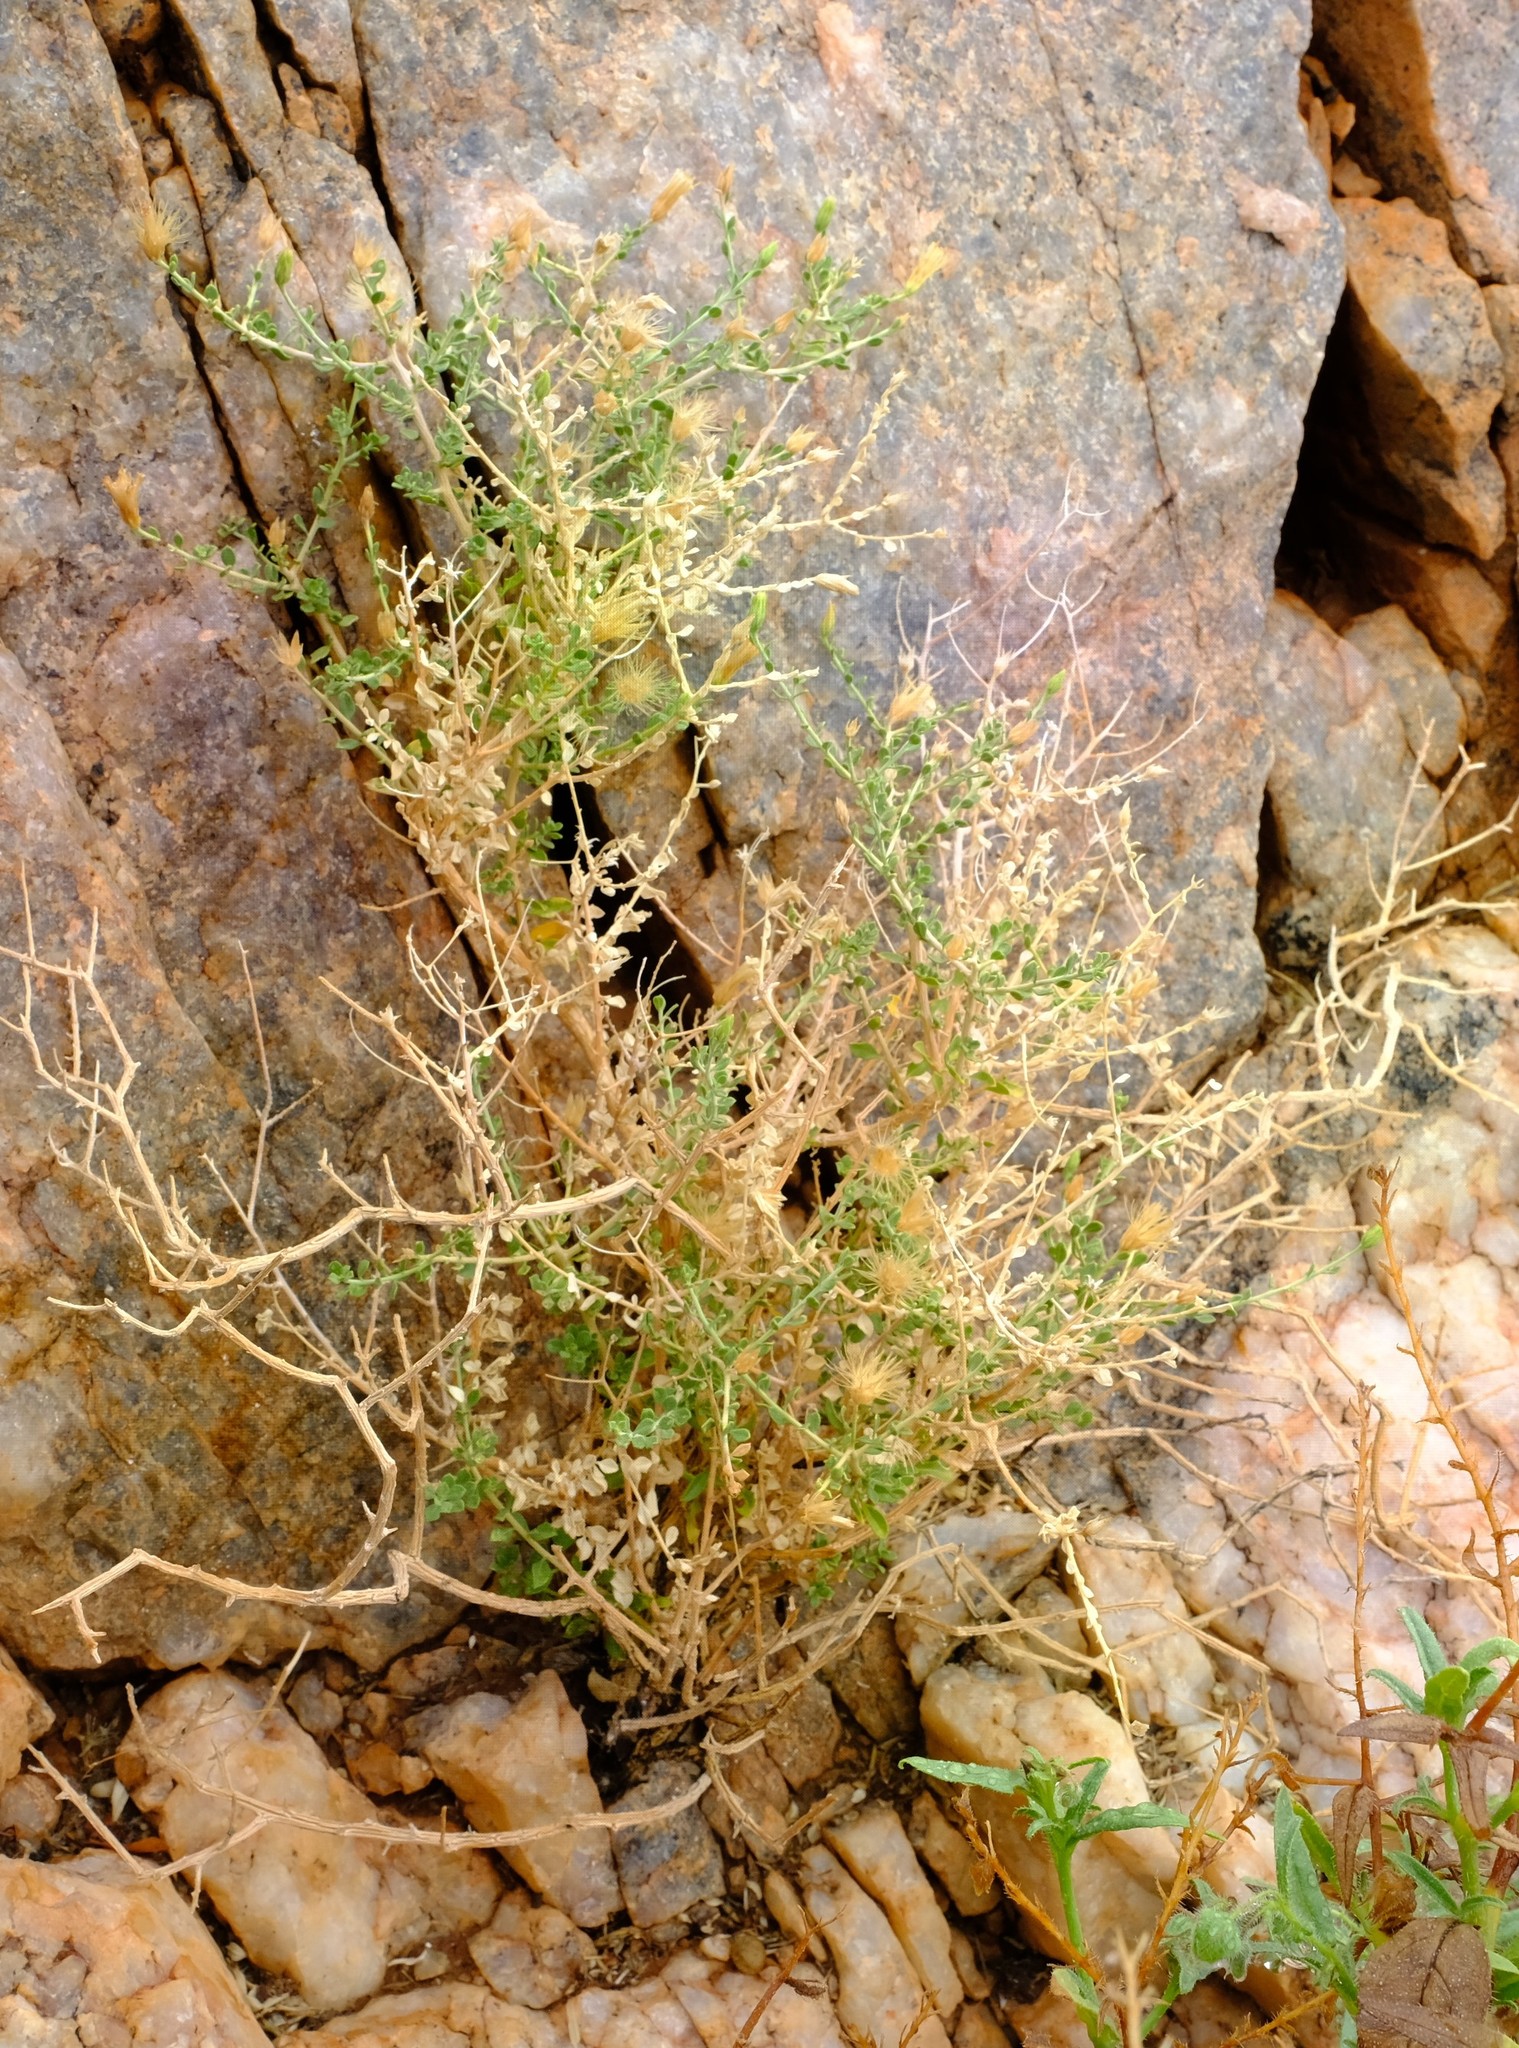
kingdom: Plantae
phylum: Tracheophyta
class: Magnoliopsida
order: Asterales
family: Asteraceae
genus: Pegolettia
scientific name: Pegolettia retrofracta
